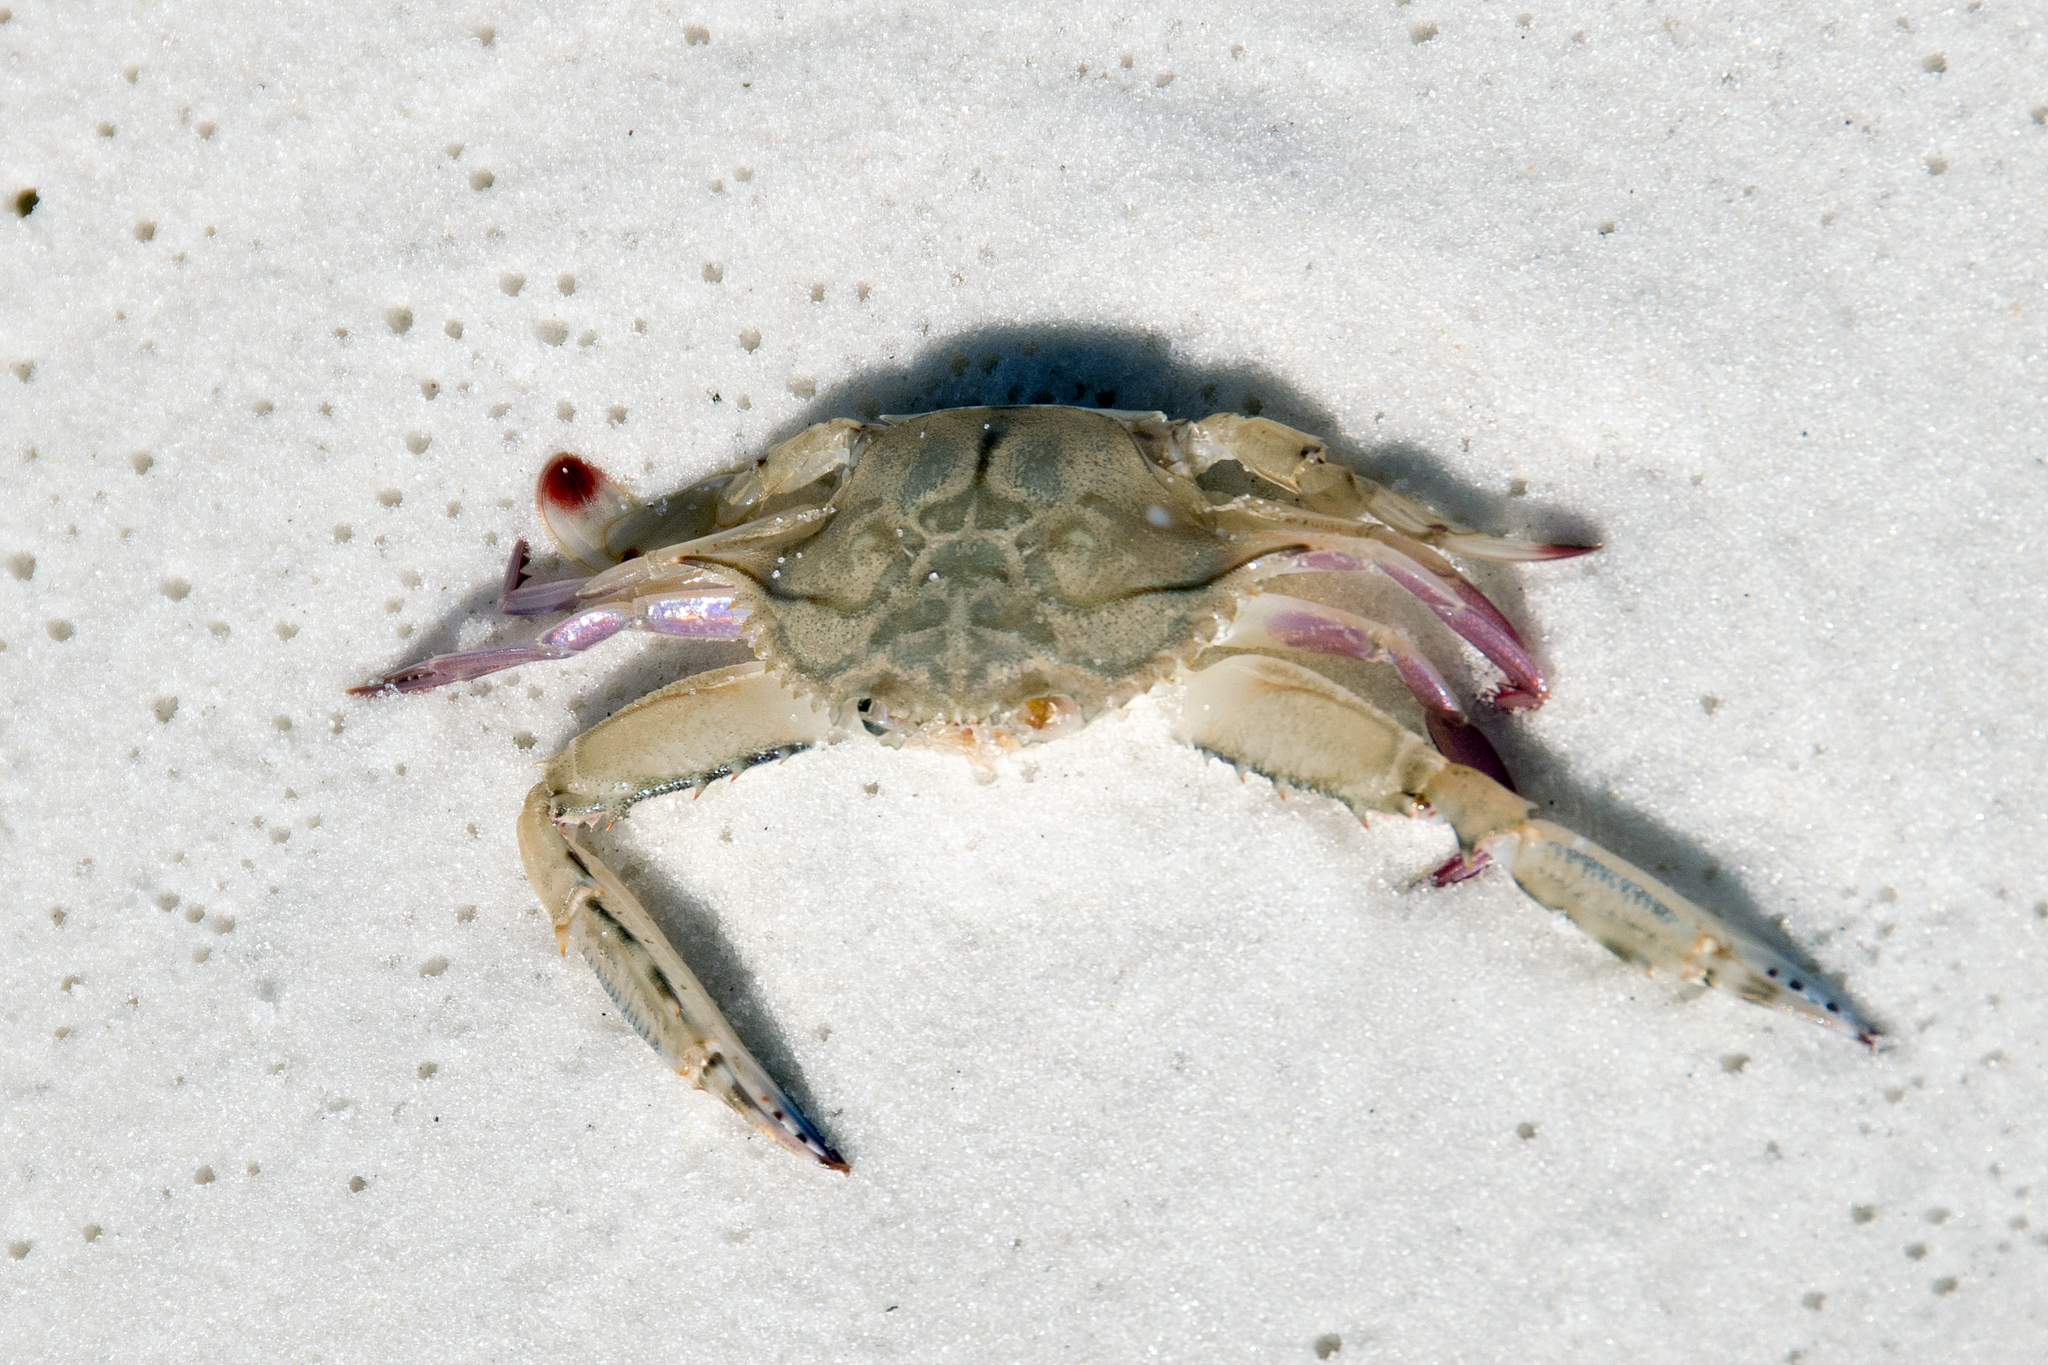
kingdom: Animalia
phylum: Arthropoda
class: Malacostraca
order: Decapoda
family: Portunidae
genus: Achelous
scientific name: Achelous gibbesii
